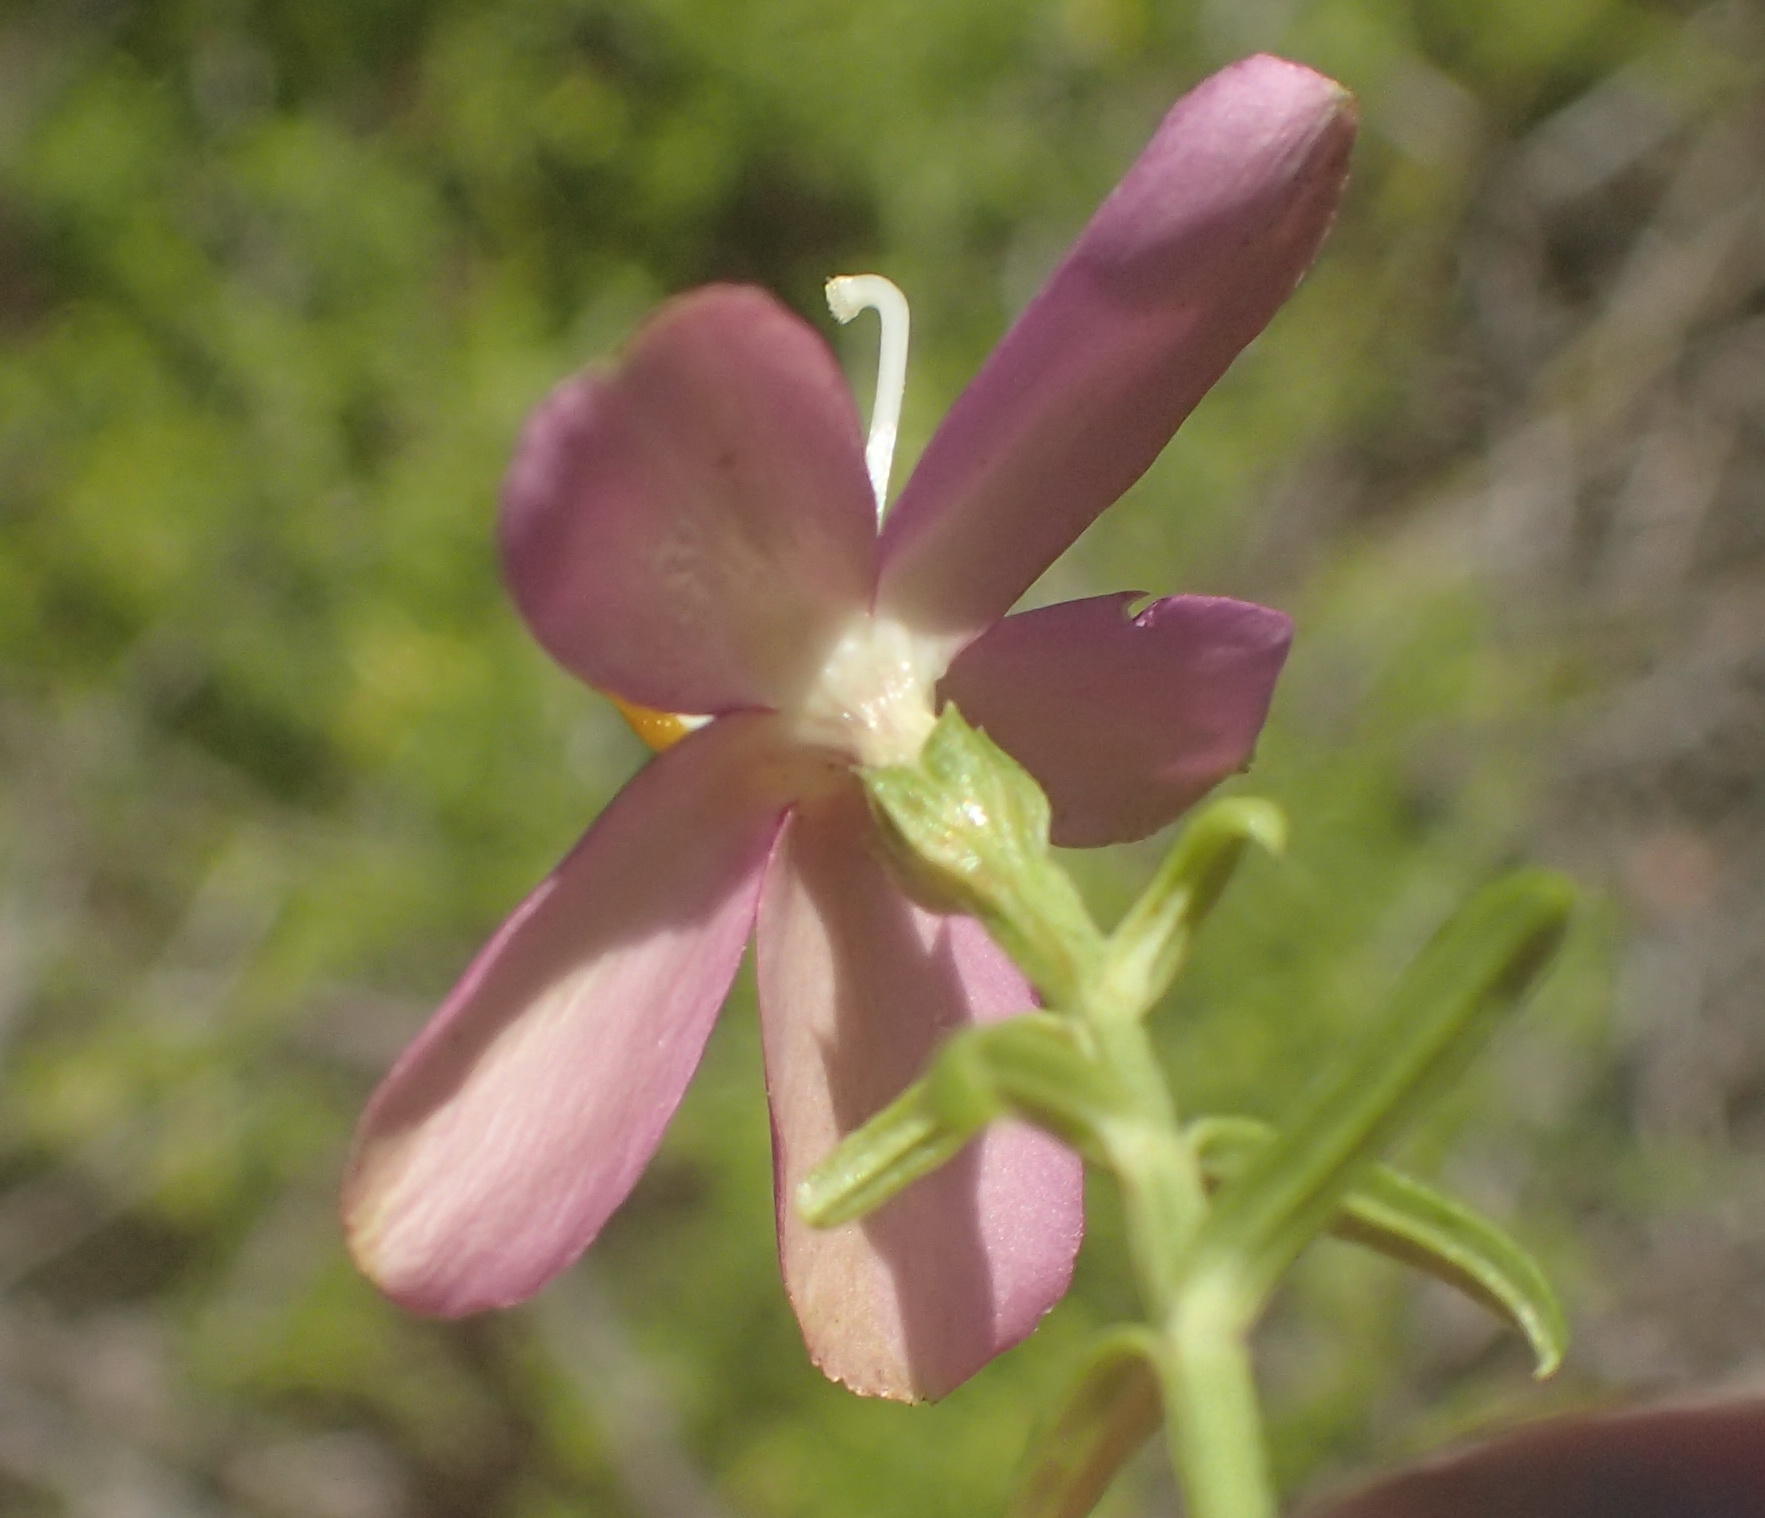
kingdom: Plantae
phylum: Tracheophyta
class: Magnoliopsida
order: Gentianales
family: Gentianaceae
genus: Chironia
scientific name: Chironia baccifera
